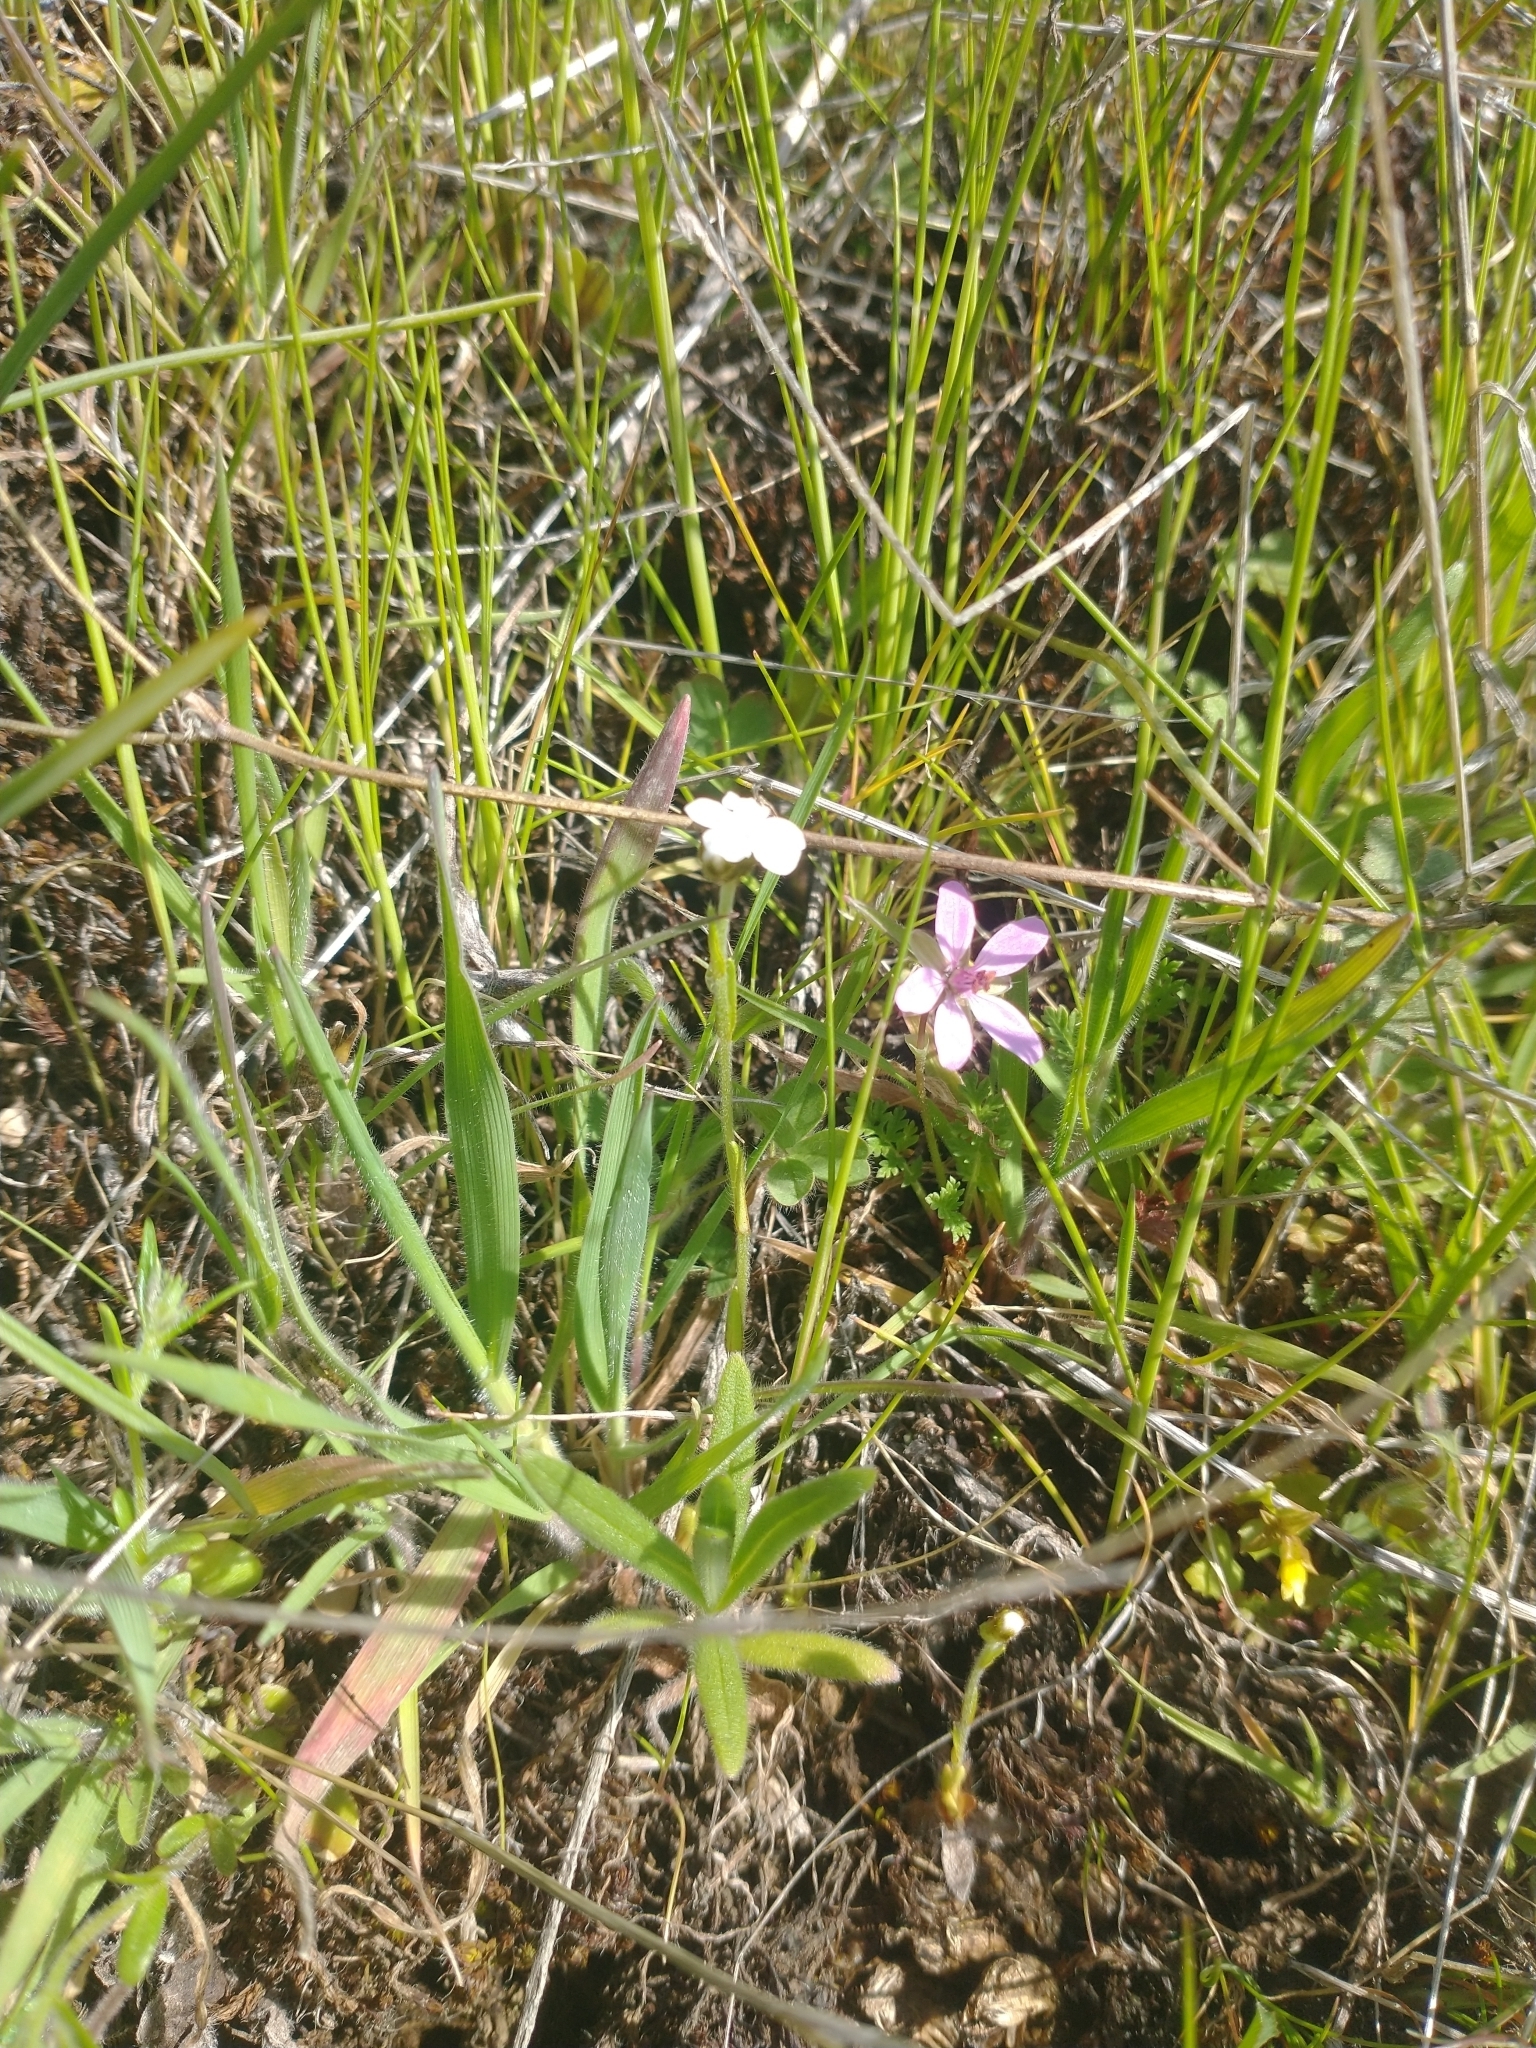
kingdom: Plantae
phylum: Tracheophyta
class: Magnoliopsida
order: Geraniales
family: Geraniaceae
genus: Erodium
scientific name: Erodium cicutarium
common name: Common stork's-bill
